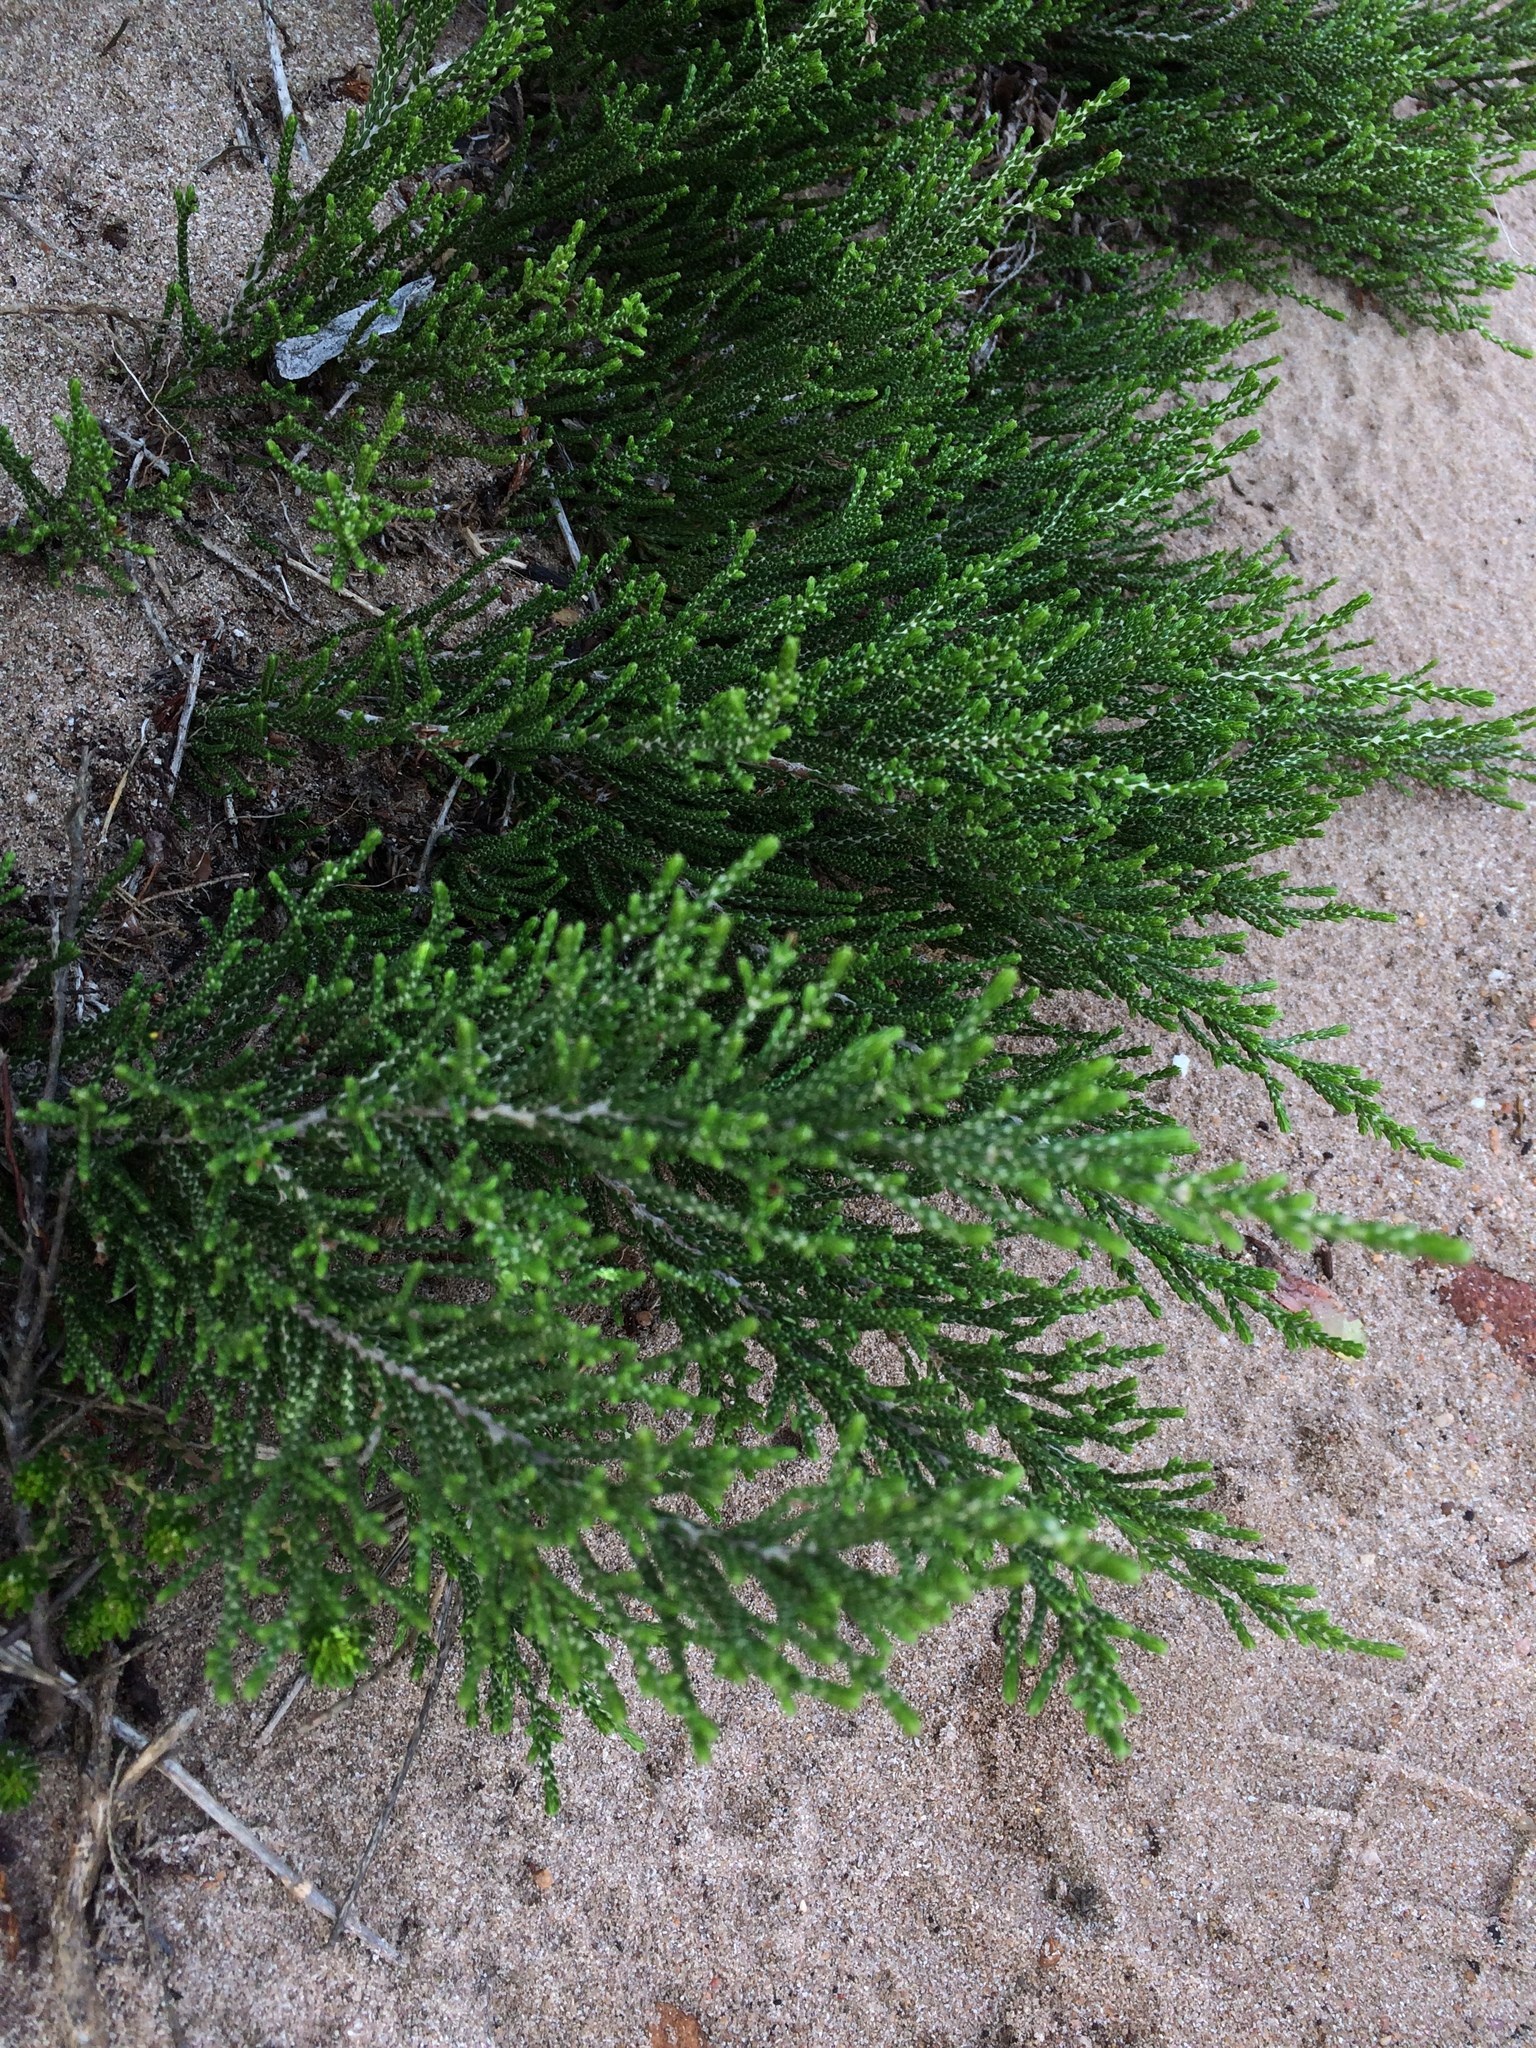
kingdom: Plantae
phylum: Tracheophyta
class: Magnoliopsida
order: Malvales
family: Thymelaeaceae
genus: Passerina
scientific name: Passerina paleacea
